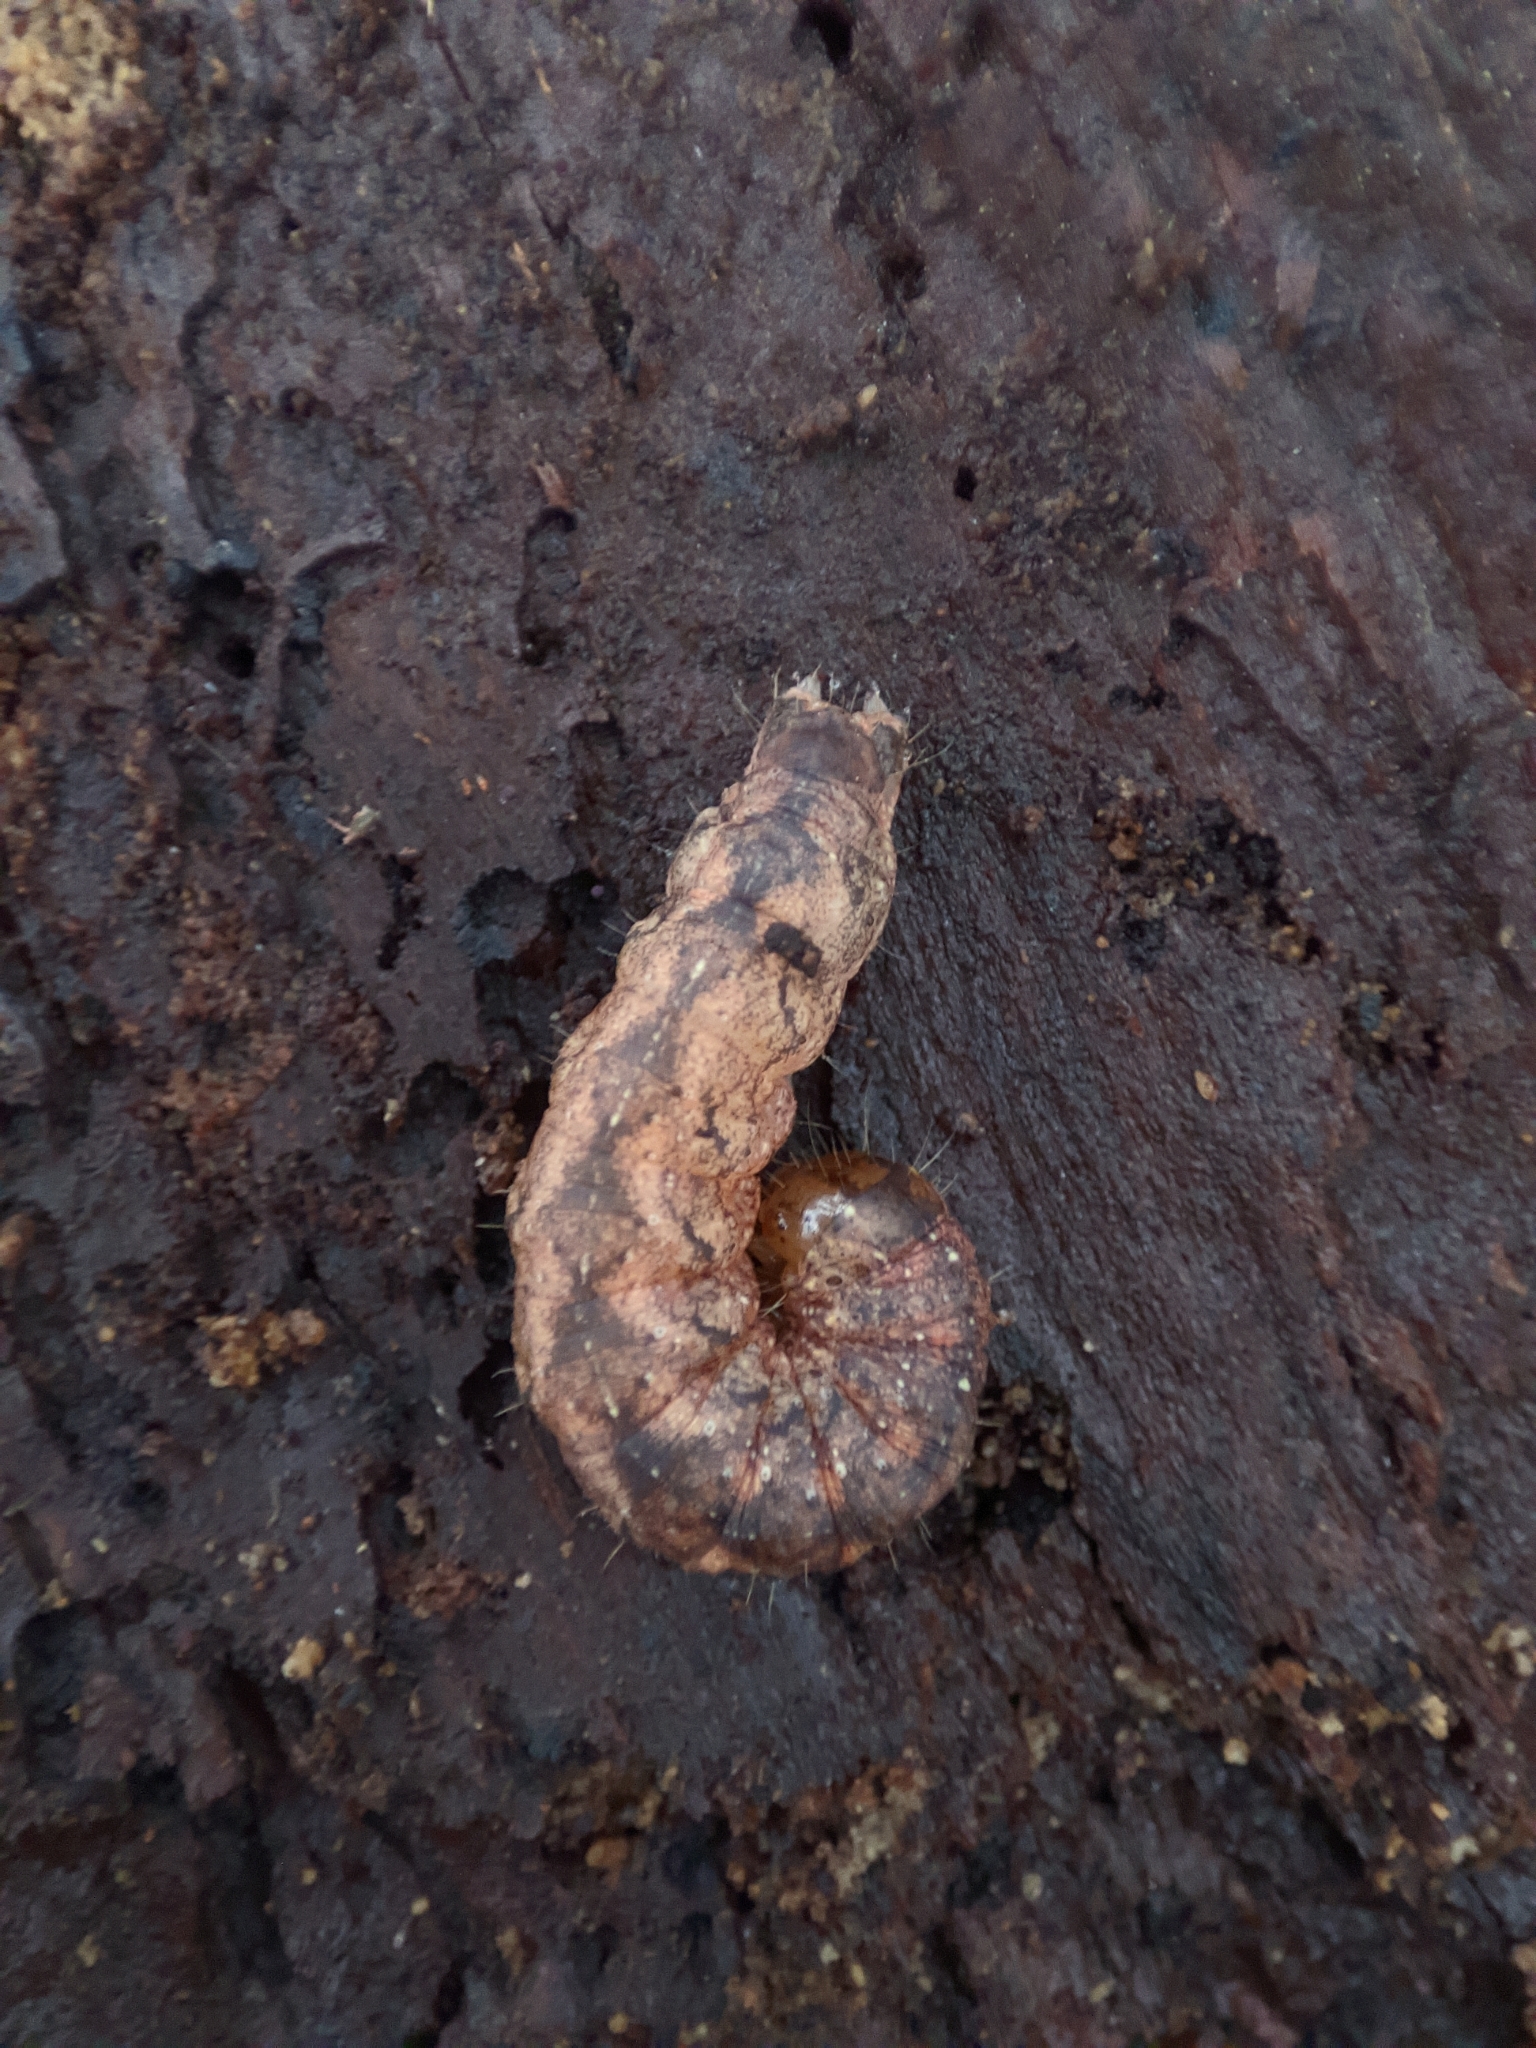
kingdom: Animalia
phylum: Arthropoda
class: Insecta
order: Lepidoptera
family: Noctuidae
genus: Polia
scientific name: Polia nebulosa
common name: Grey arches
